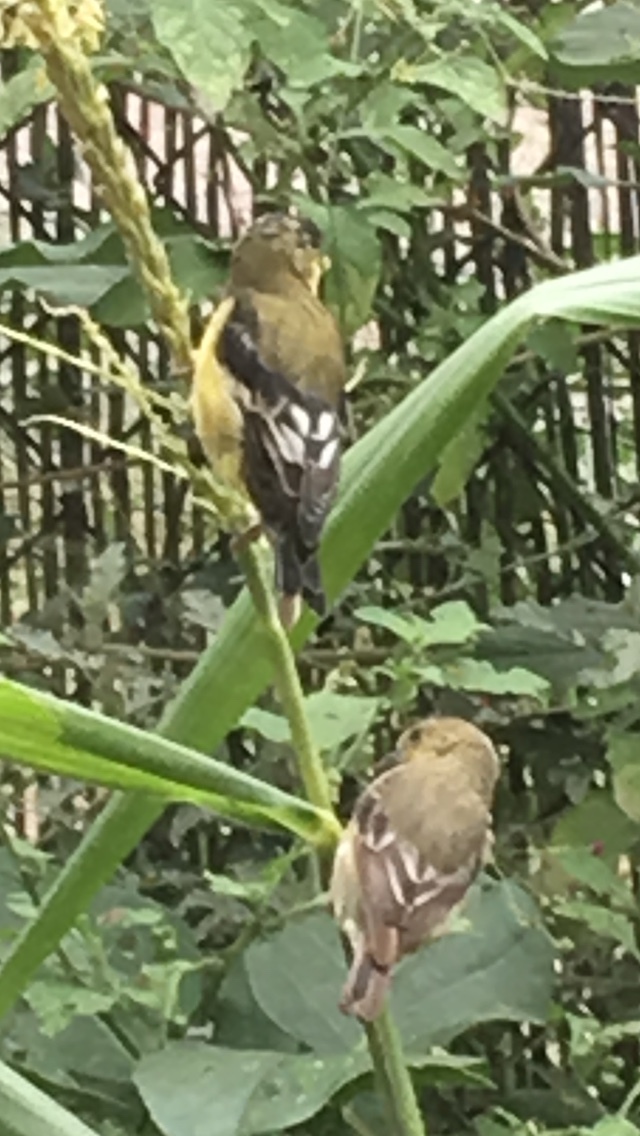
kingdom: Animalia
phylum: Chordata
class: Aves
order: Passeriformes
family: Fringillidae
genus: Spinus
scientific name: Spinus psaltria
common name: Lesser goldfinch
